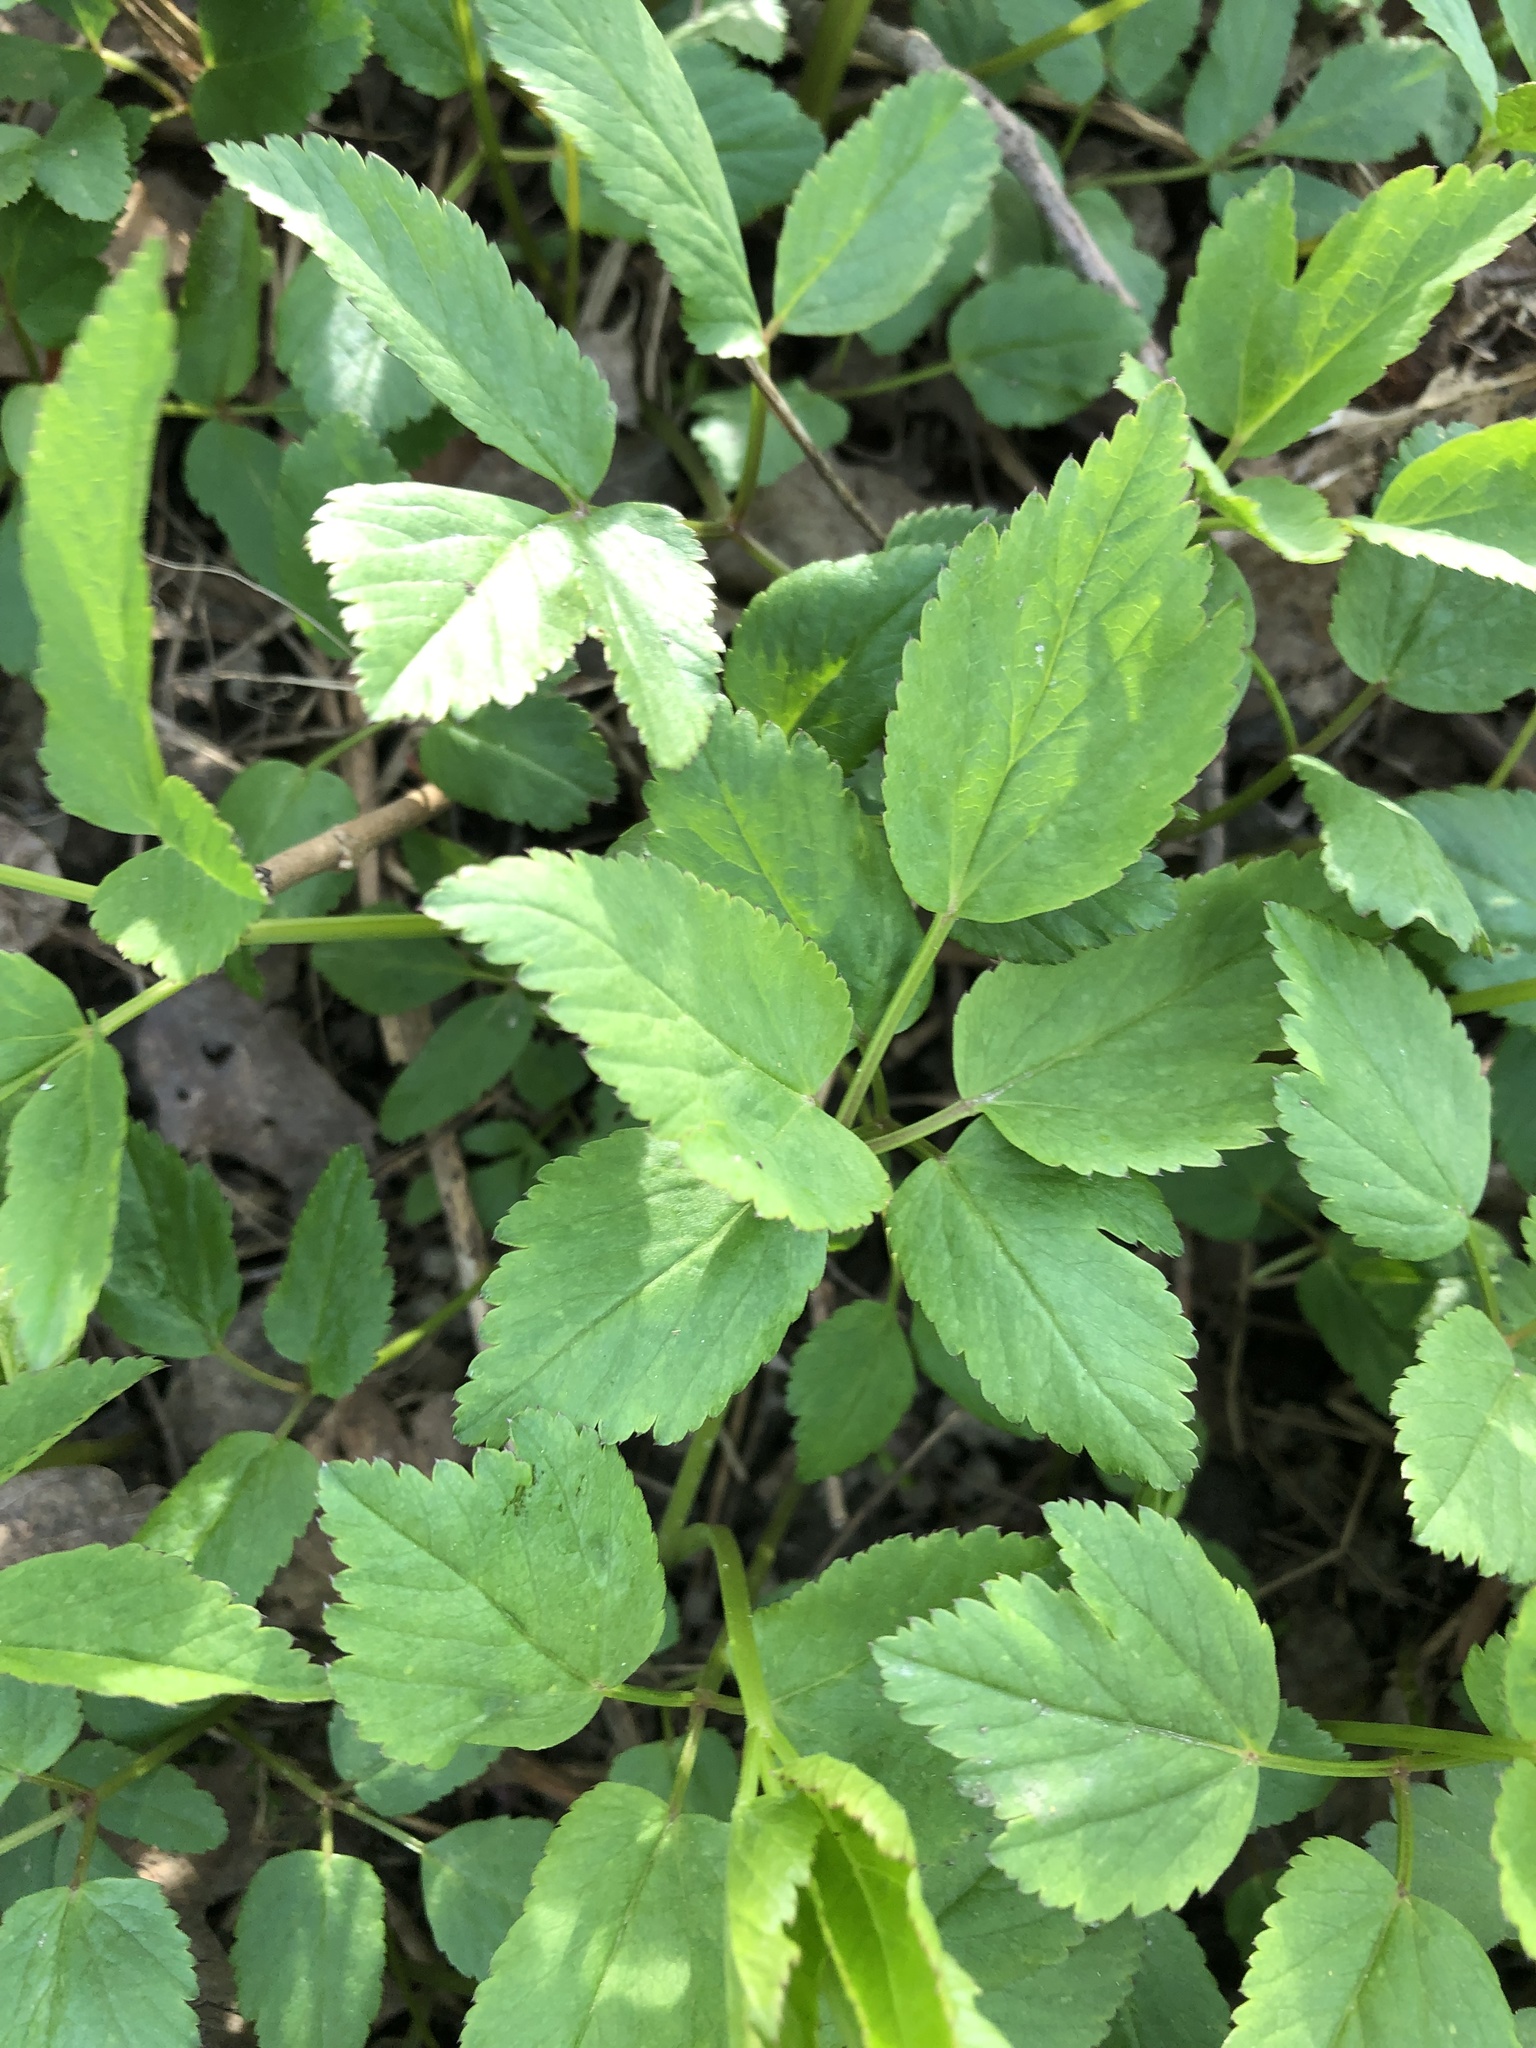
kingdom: Plantae
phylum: Tracheophyta
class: Magnoliopsida
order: Apiales
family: Apiaceae
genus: Aegopodium
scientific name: Aegopodium podagraria
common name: Ground-elder
